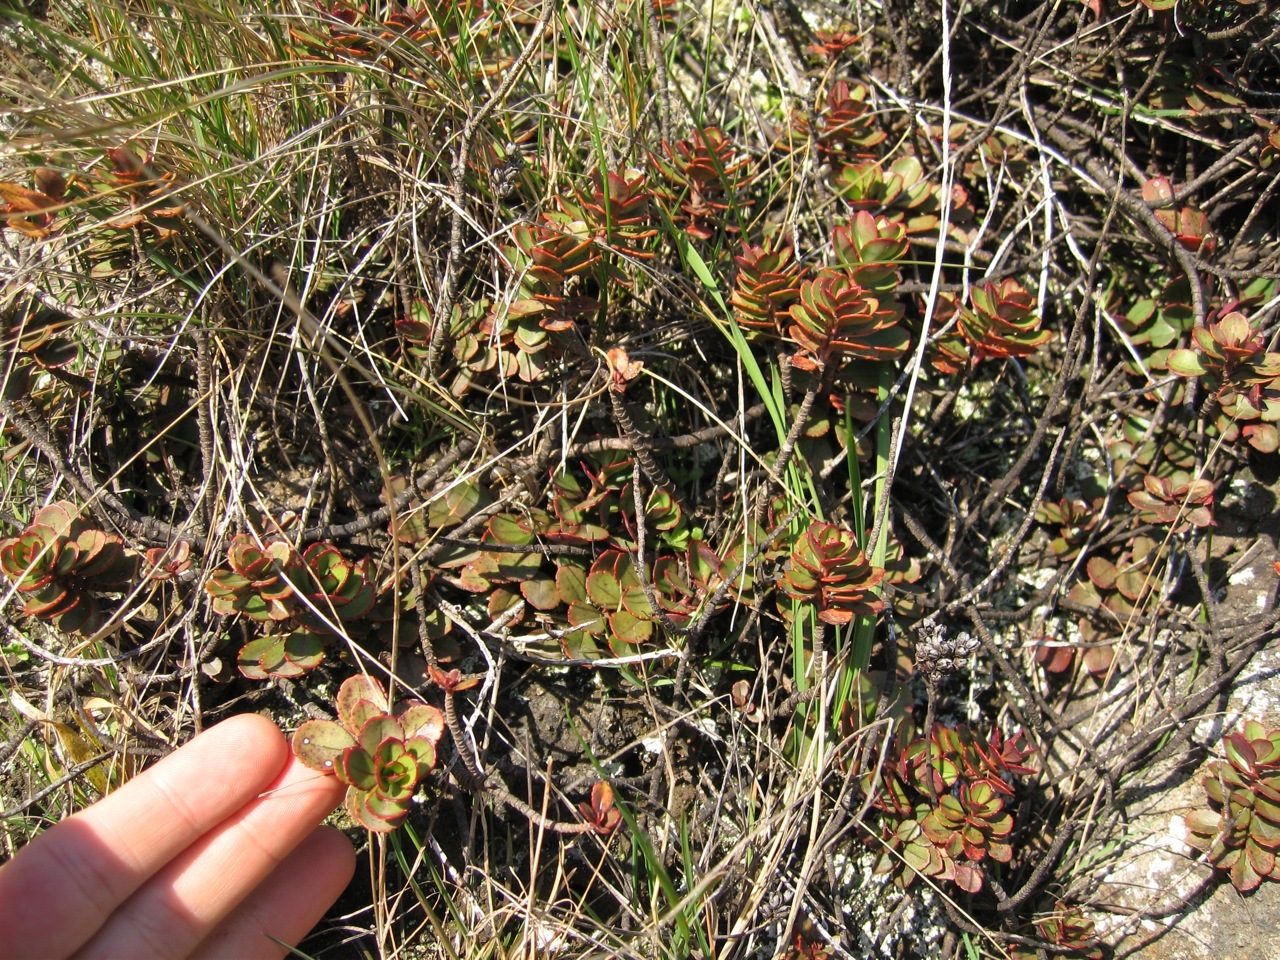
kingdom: Plantae
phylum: Tracheophyta
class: Magnoliopsida
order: Lamiales
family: Plantaginaceae
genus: Veronica
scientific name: Veronica lavaudiana
